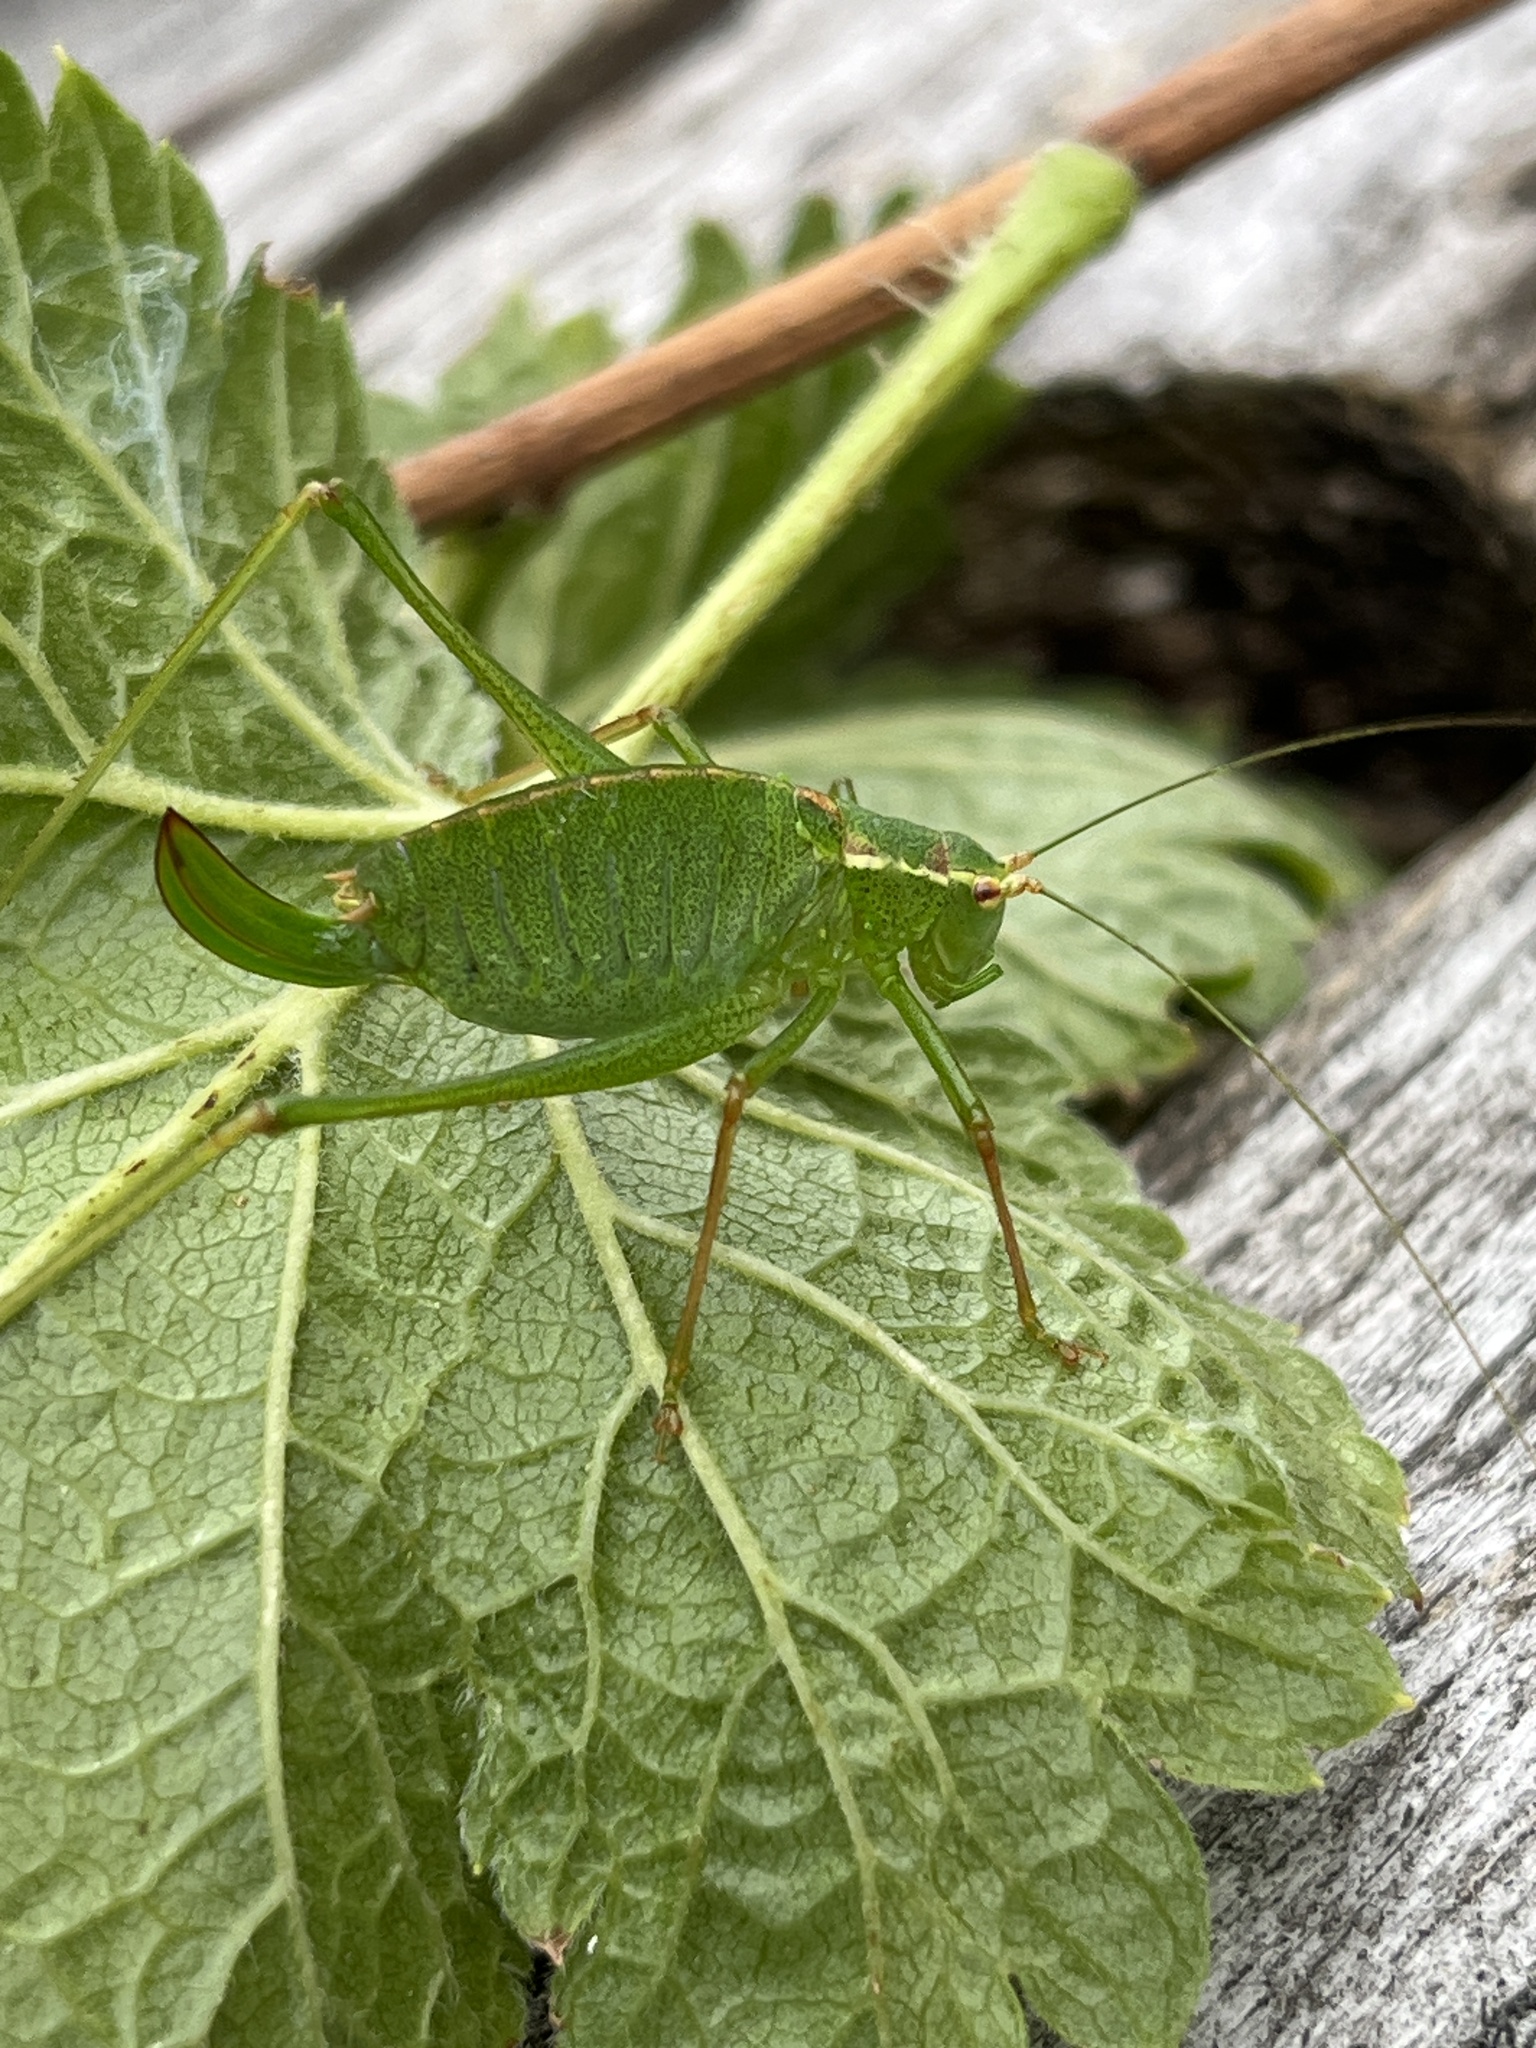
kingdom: Animalia
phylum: Arthropoda
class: Insecta
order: Orthoptera
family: Tettigoniidae
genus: Leptophyes
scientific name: Leptophyes punctatissima
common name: Speckled bush-cricket
